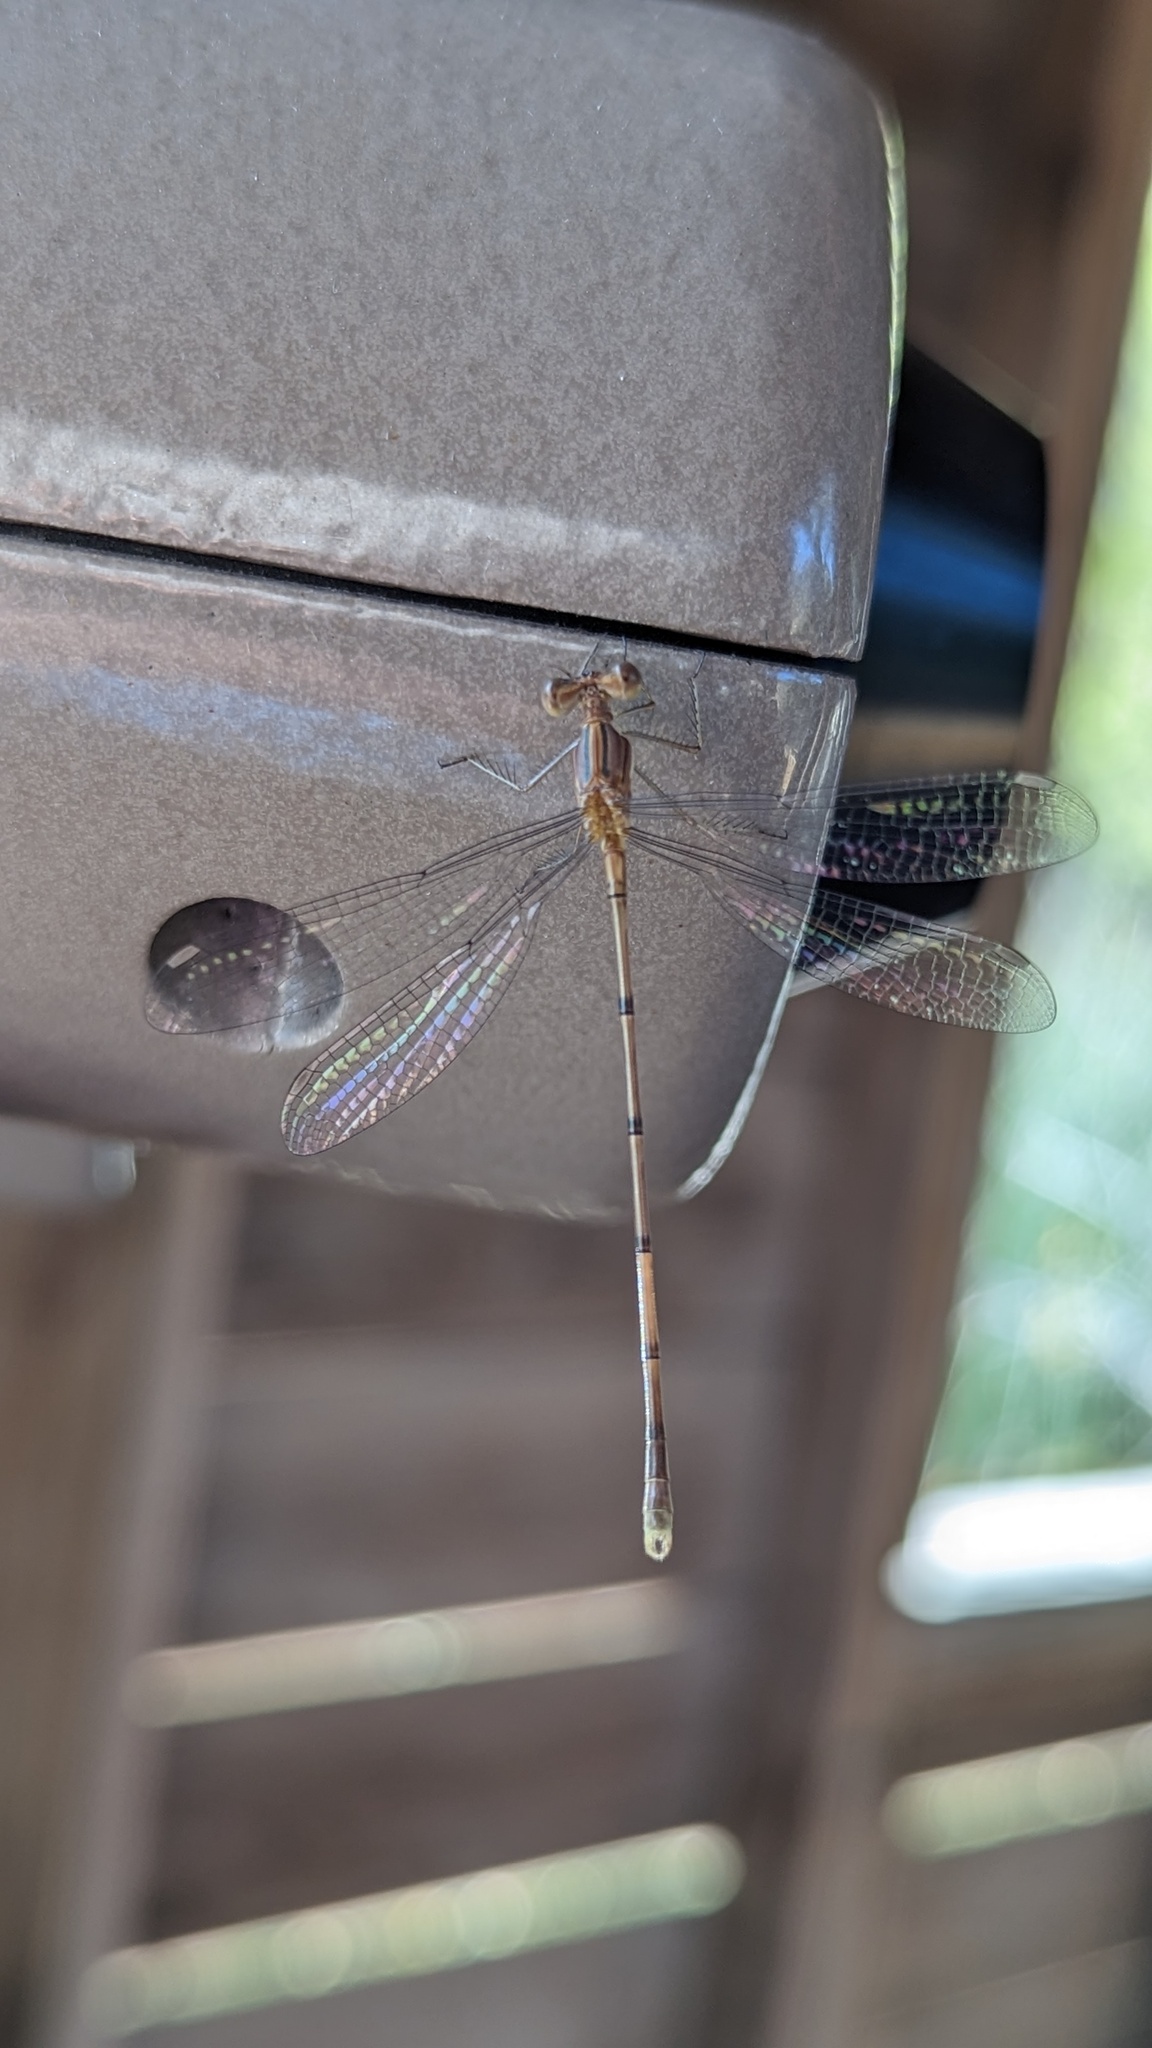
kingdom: Animalia
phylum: Arthropoda
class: Insecta
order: Odonata
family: Lestidae
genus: Lestes
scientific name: Lestes forficula
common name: Rainpool spreadwing
